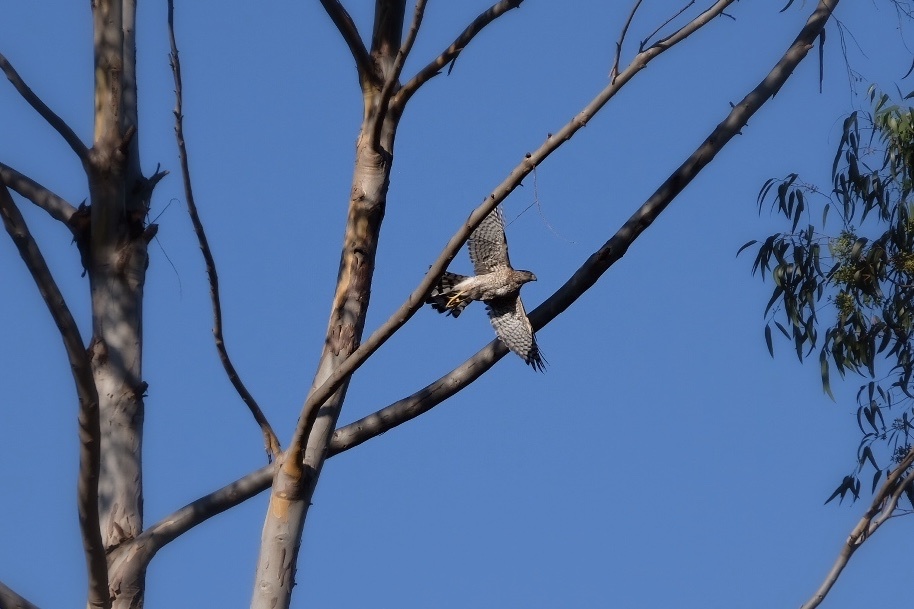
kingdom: Animalia
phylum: Chordata
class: Aves
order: Accipitriformes
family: Accipitridae
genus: Accipiter
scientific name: Accipiter cooperii
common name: Cooper's hawk
